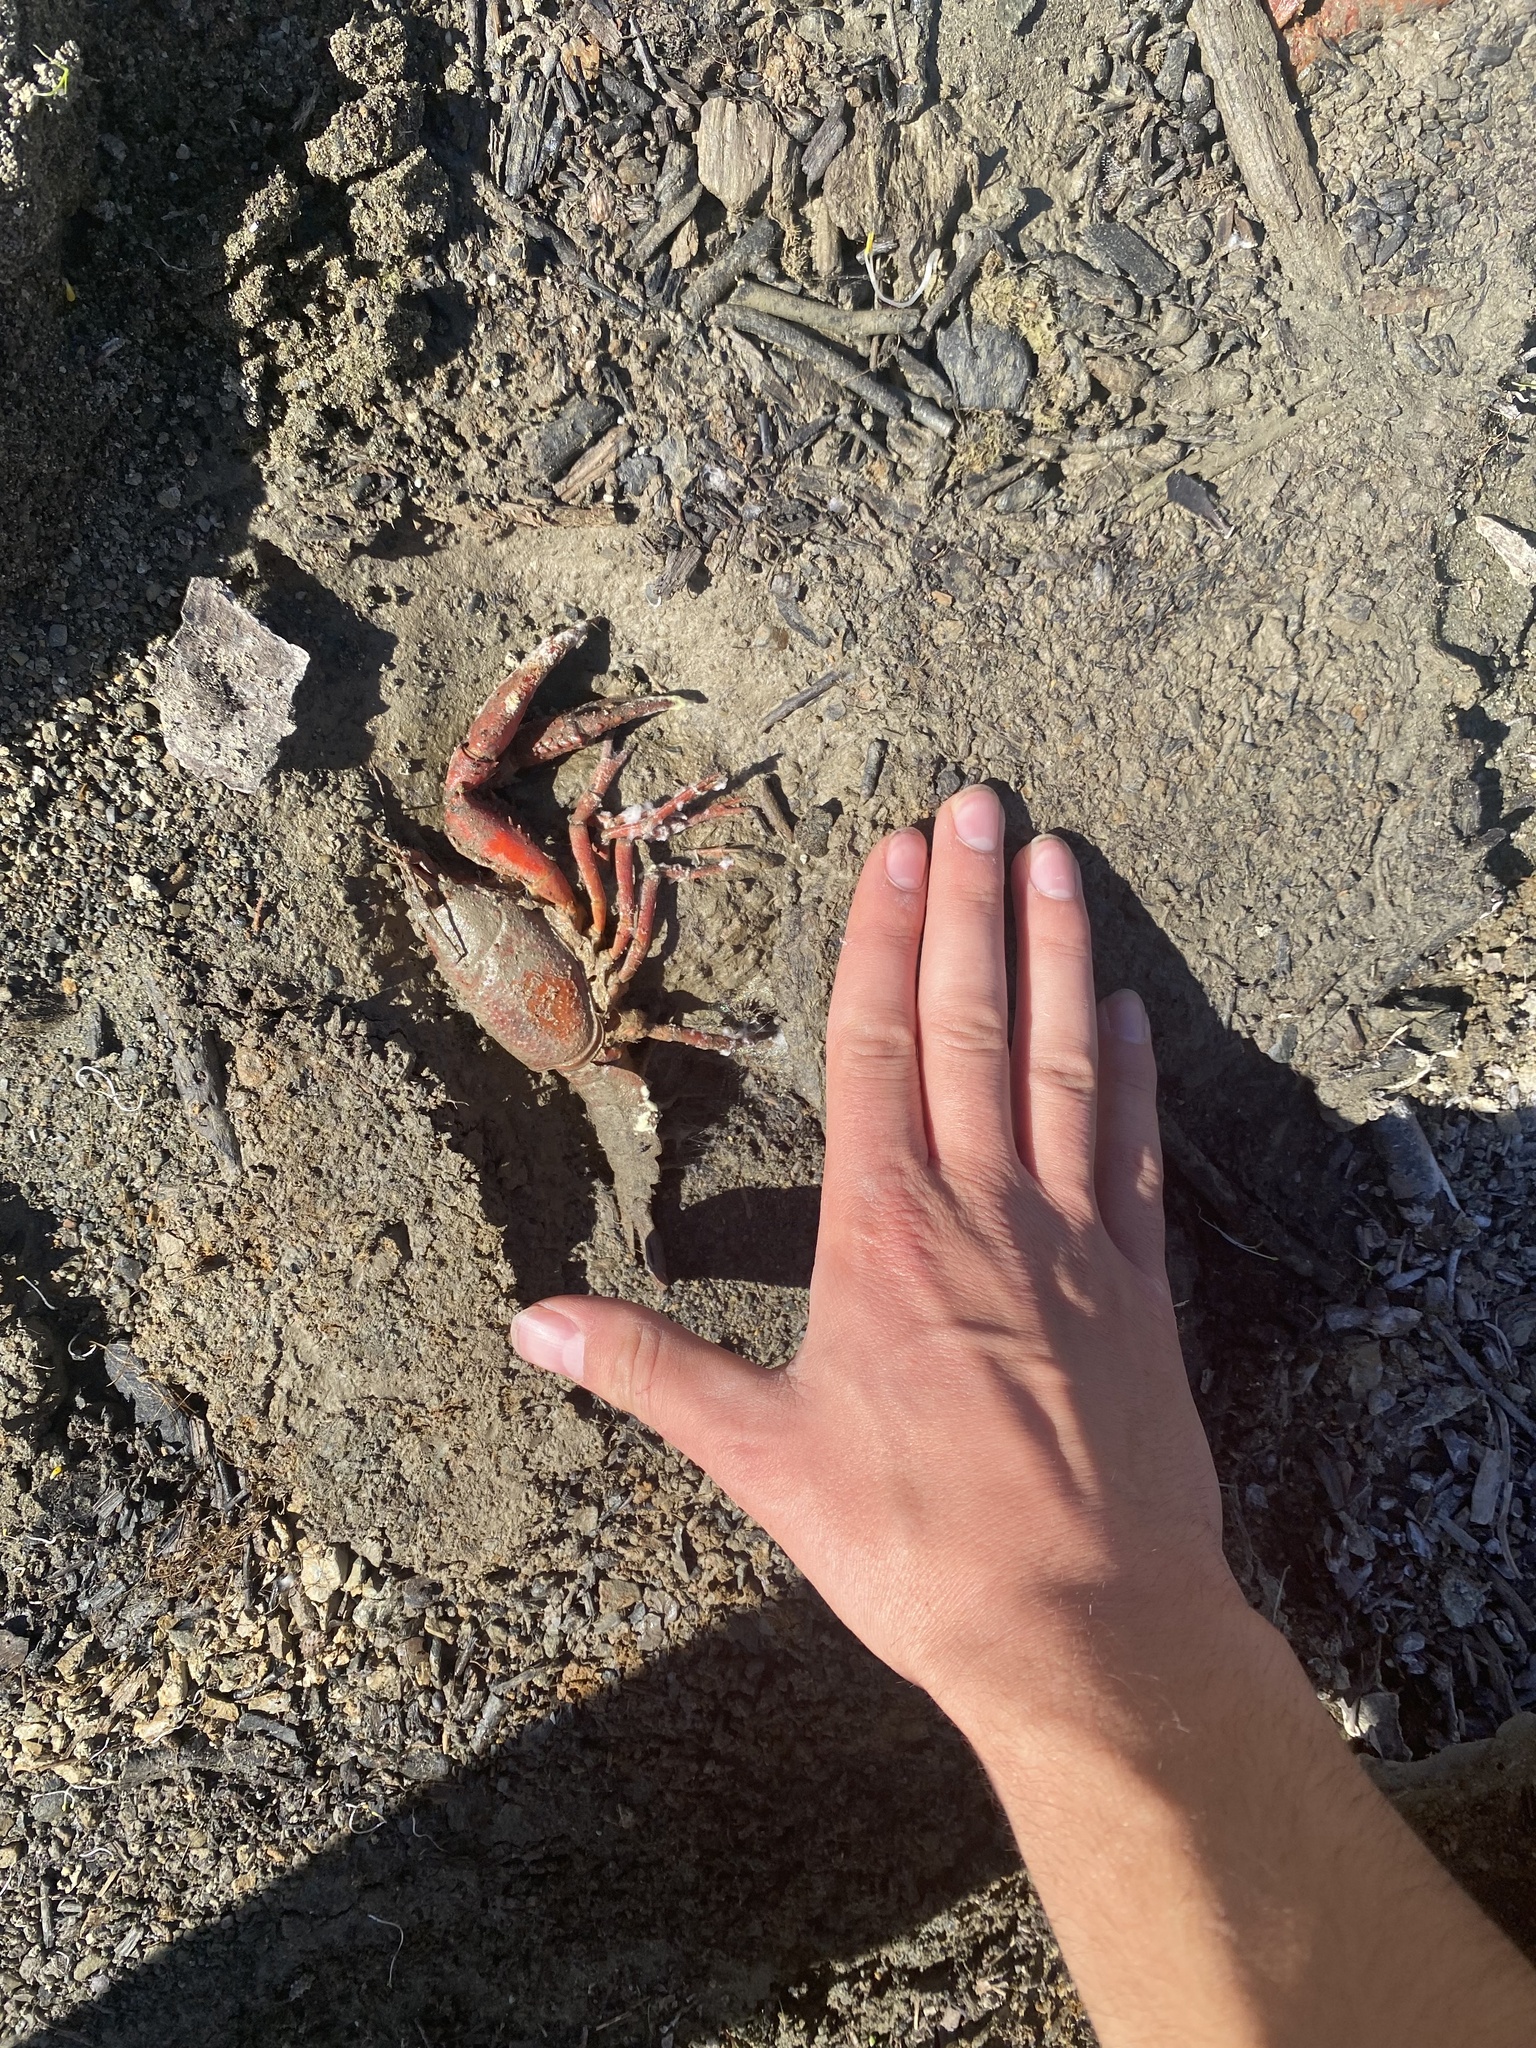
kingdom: Animalia
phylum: Arthropoda
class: Malacostraca
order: Decapoda
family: Cambaridae
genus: Procambarus
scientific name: Procambarus clarkii
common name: Red swamp crayfish
